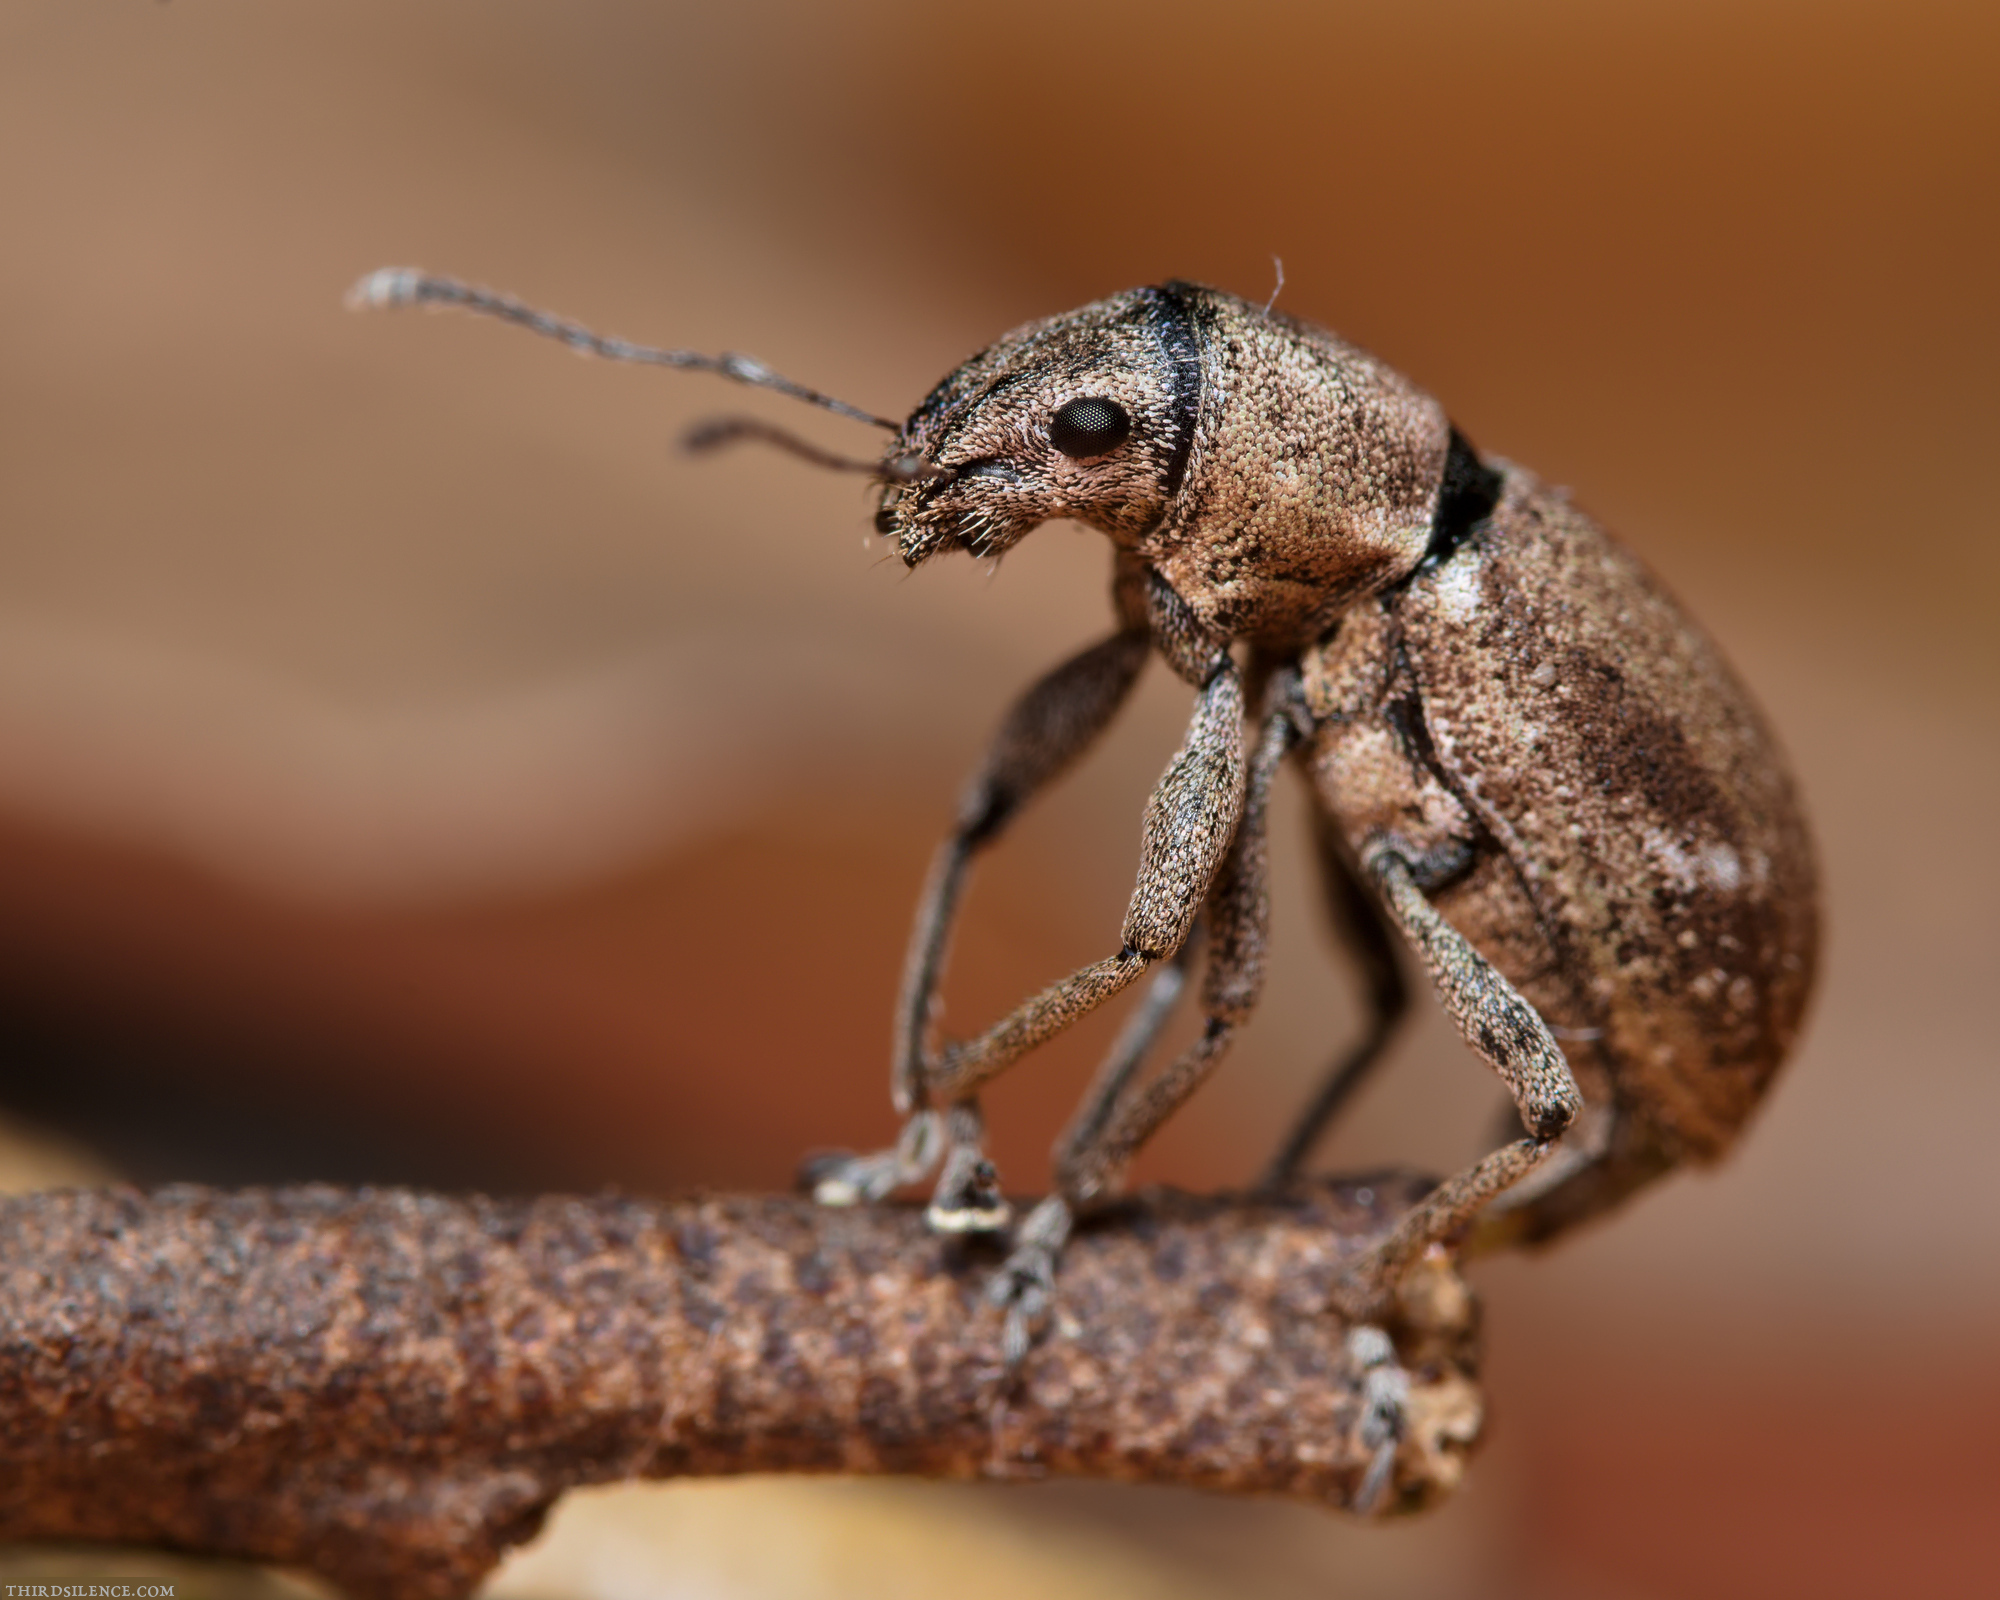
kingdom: Animalia
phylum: Arthropoda
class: Insecta
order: Coleoptera
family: Curculionidae
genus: Naupactus
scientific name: Naupactus cervinus
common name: Fuller rose beetle
